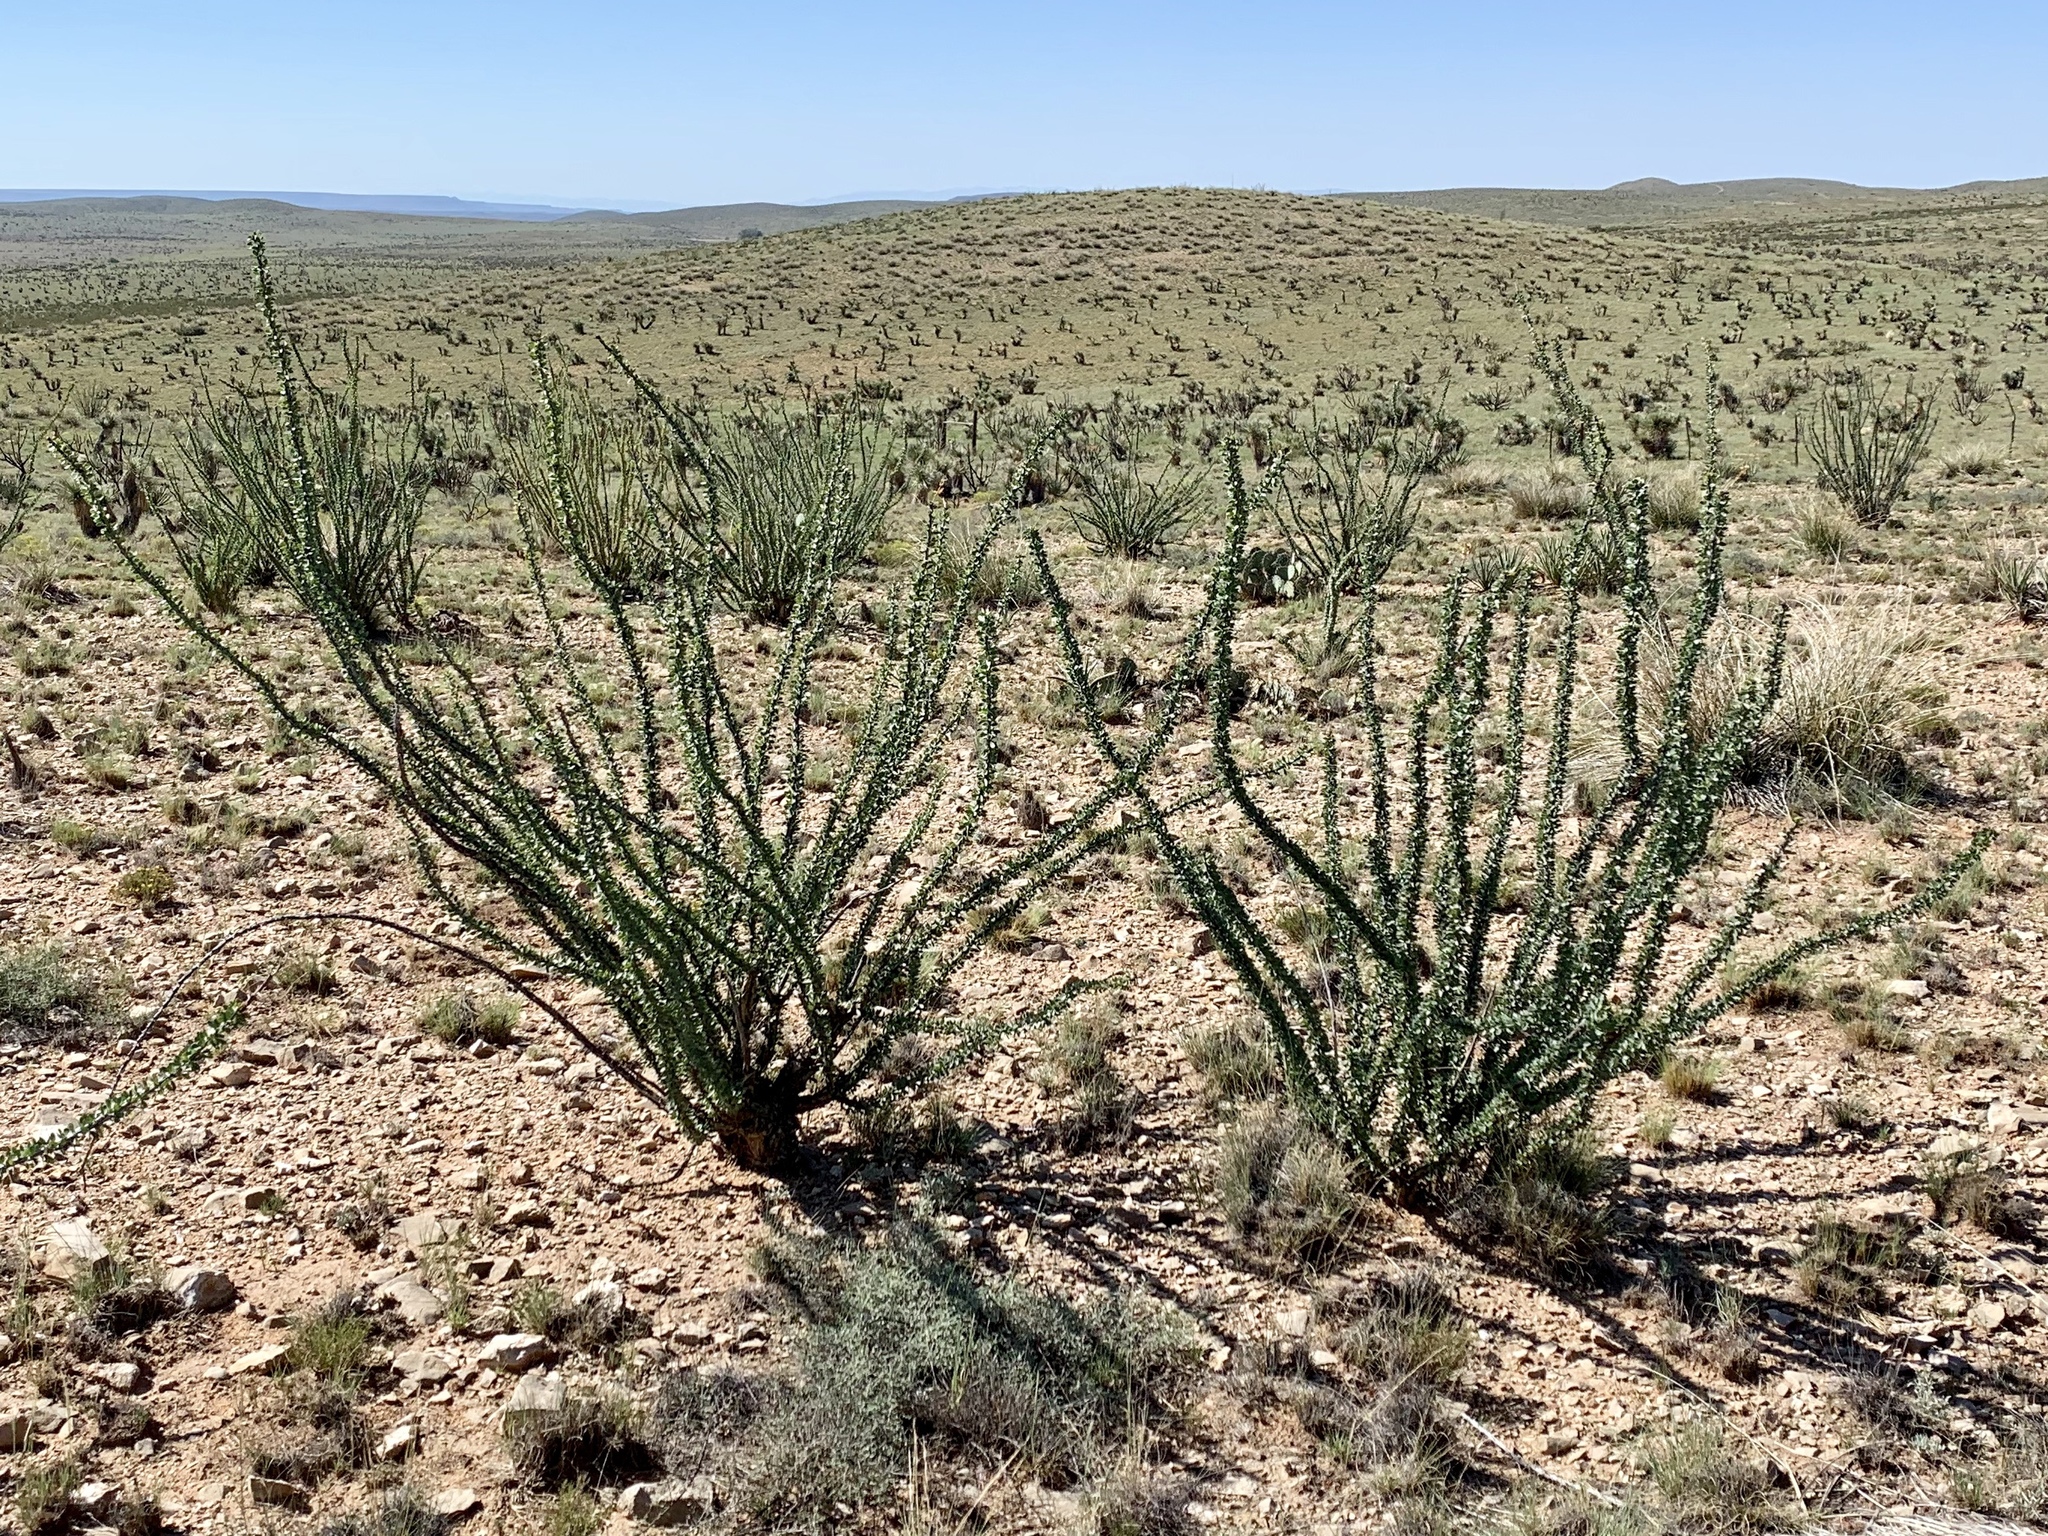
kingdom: Plantae
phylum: Tracheophyta
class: Magnoliopsida
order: Ericales
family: Fouquieriaceae
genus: Fouquieria
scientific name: Fouquieria splendens
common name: Vine-cactus
